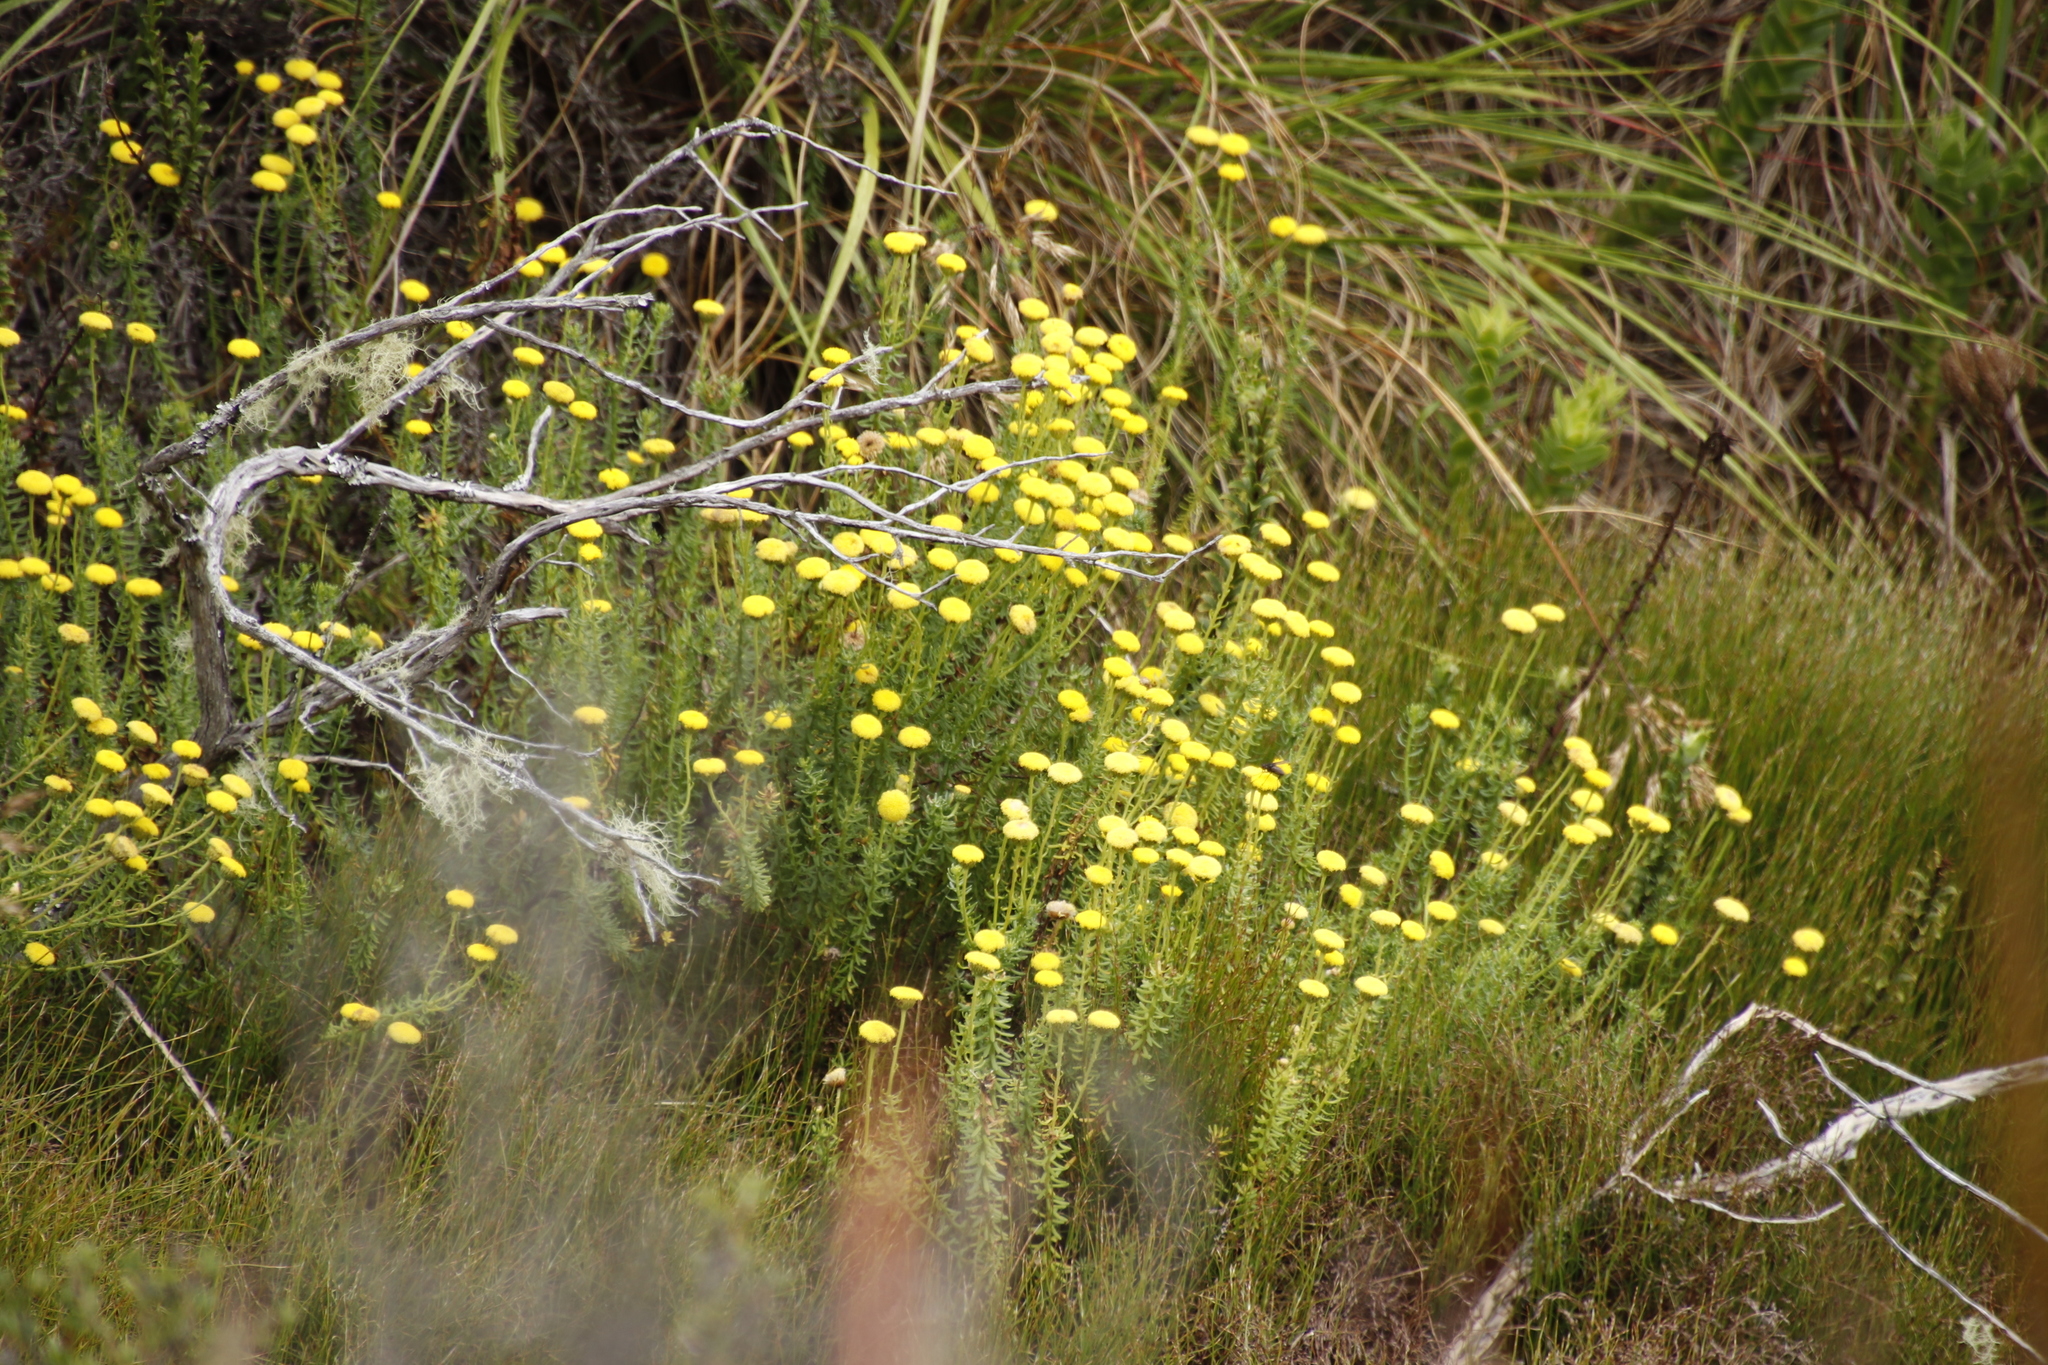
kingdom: Plantae
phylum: Tracheophyta
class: Magnoliopsida
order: Asterales
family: Asteraceae
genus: Chrysocoma
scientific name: Chrysocoma cernua
